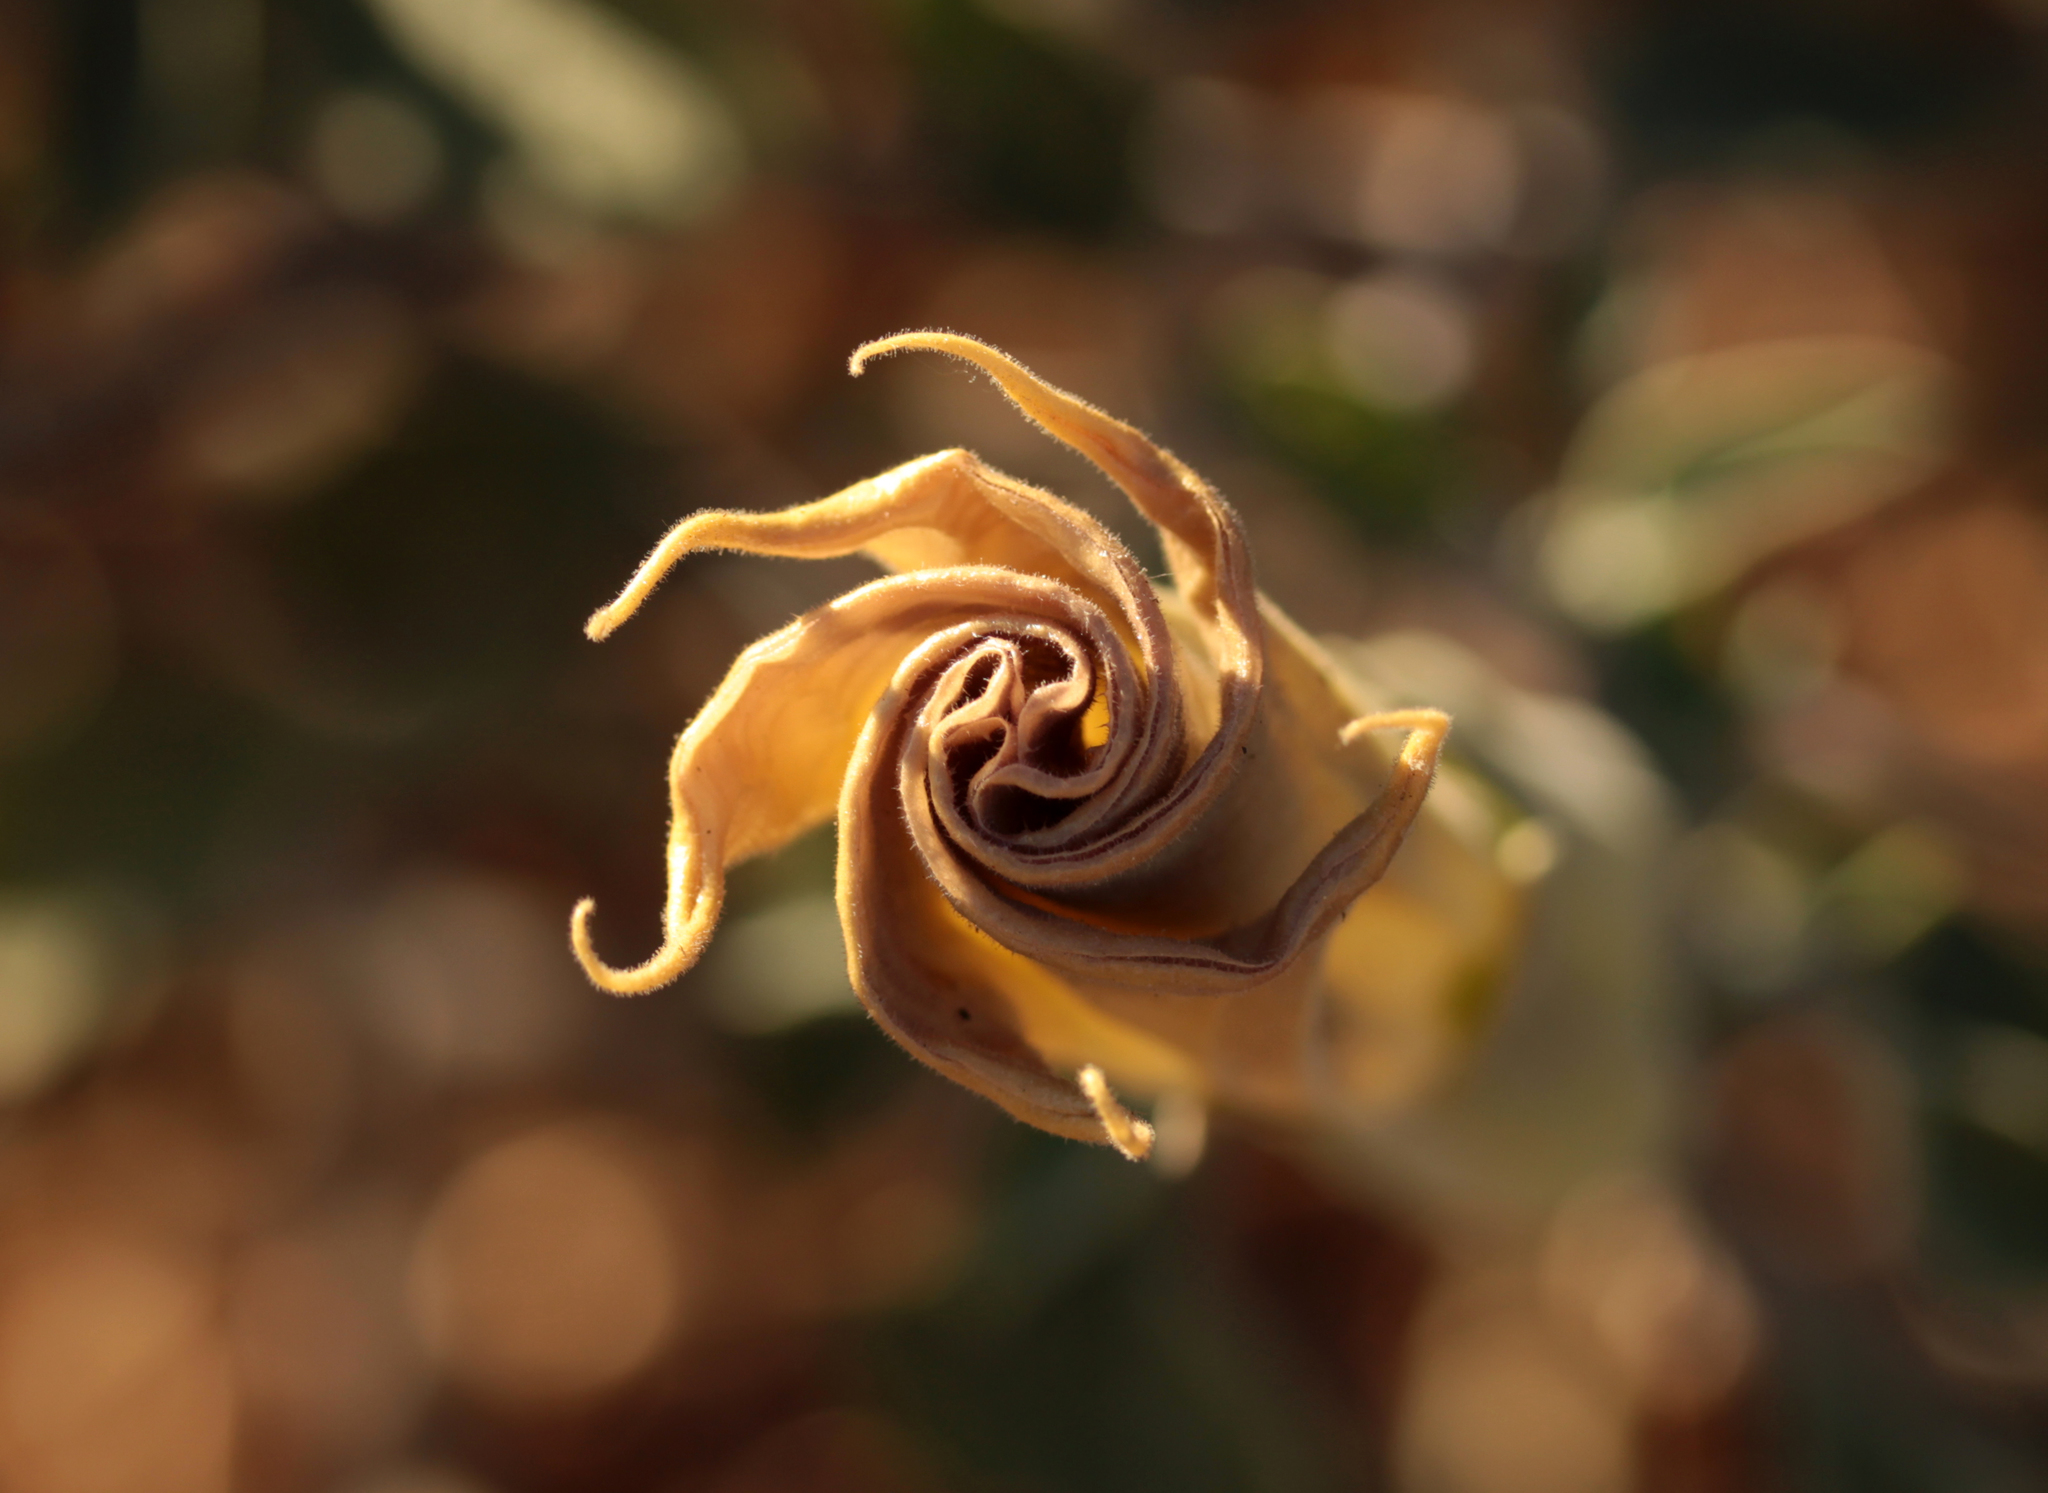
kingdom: Plantae
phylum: Tracheophyta
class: Magnoliopsida
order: Solanales
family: Solanaceae
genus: Datura
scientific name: Datura wrightii
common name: Sacred thorn-apple
